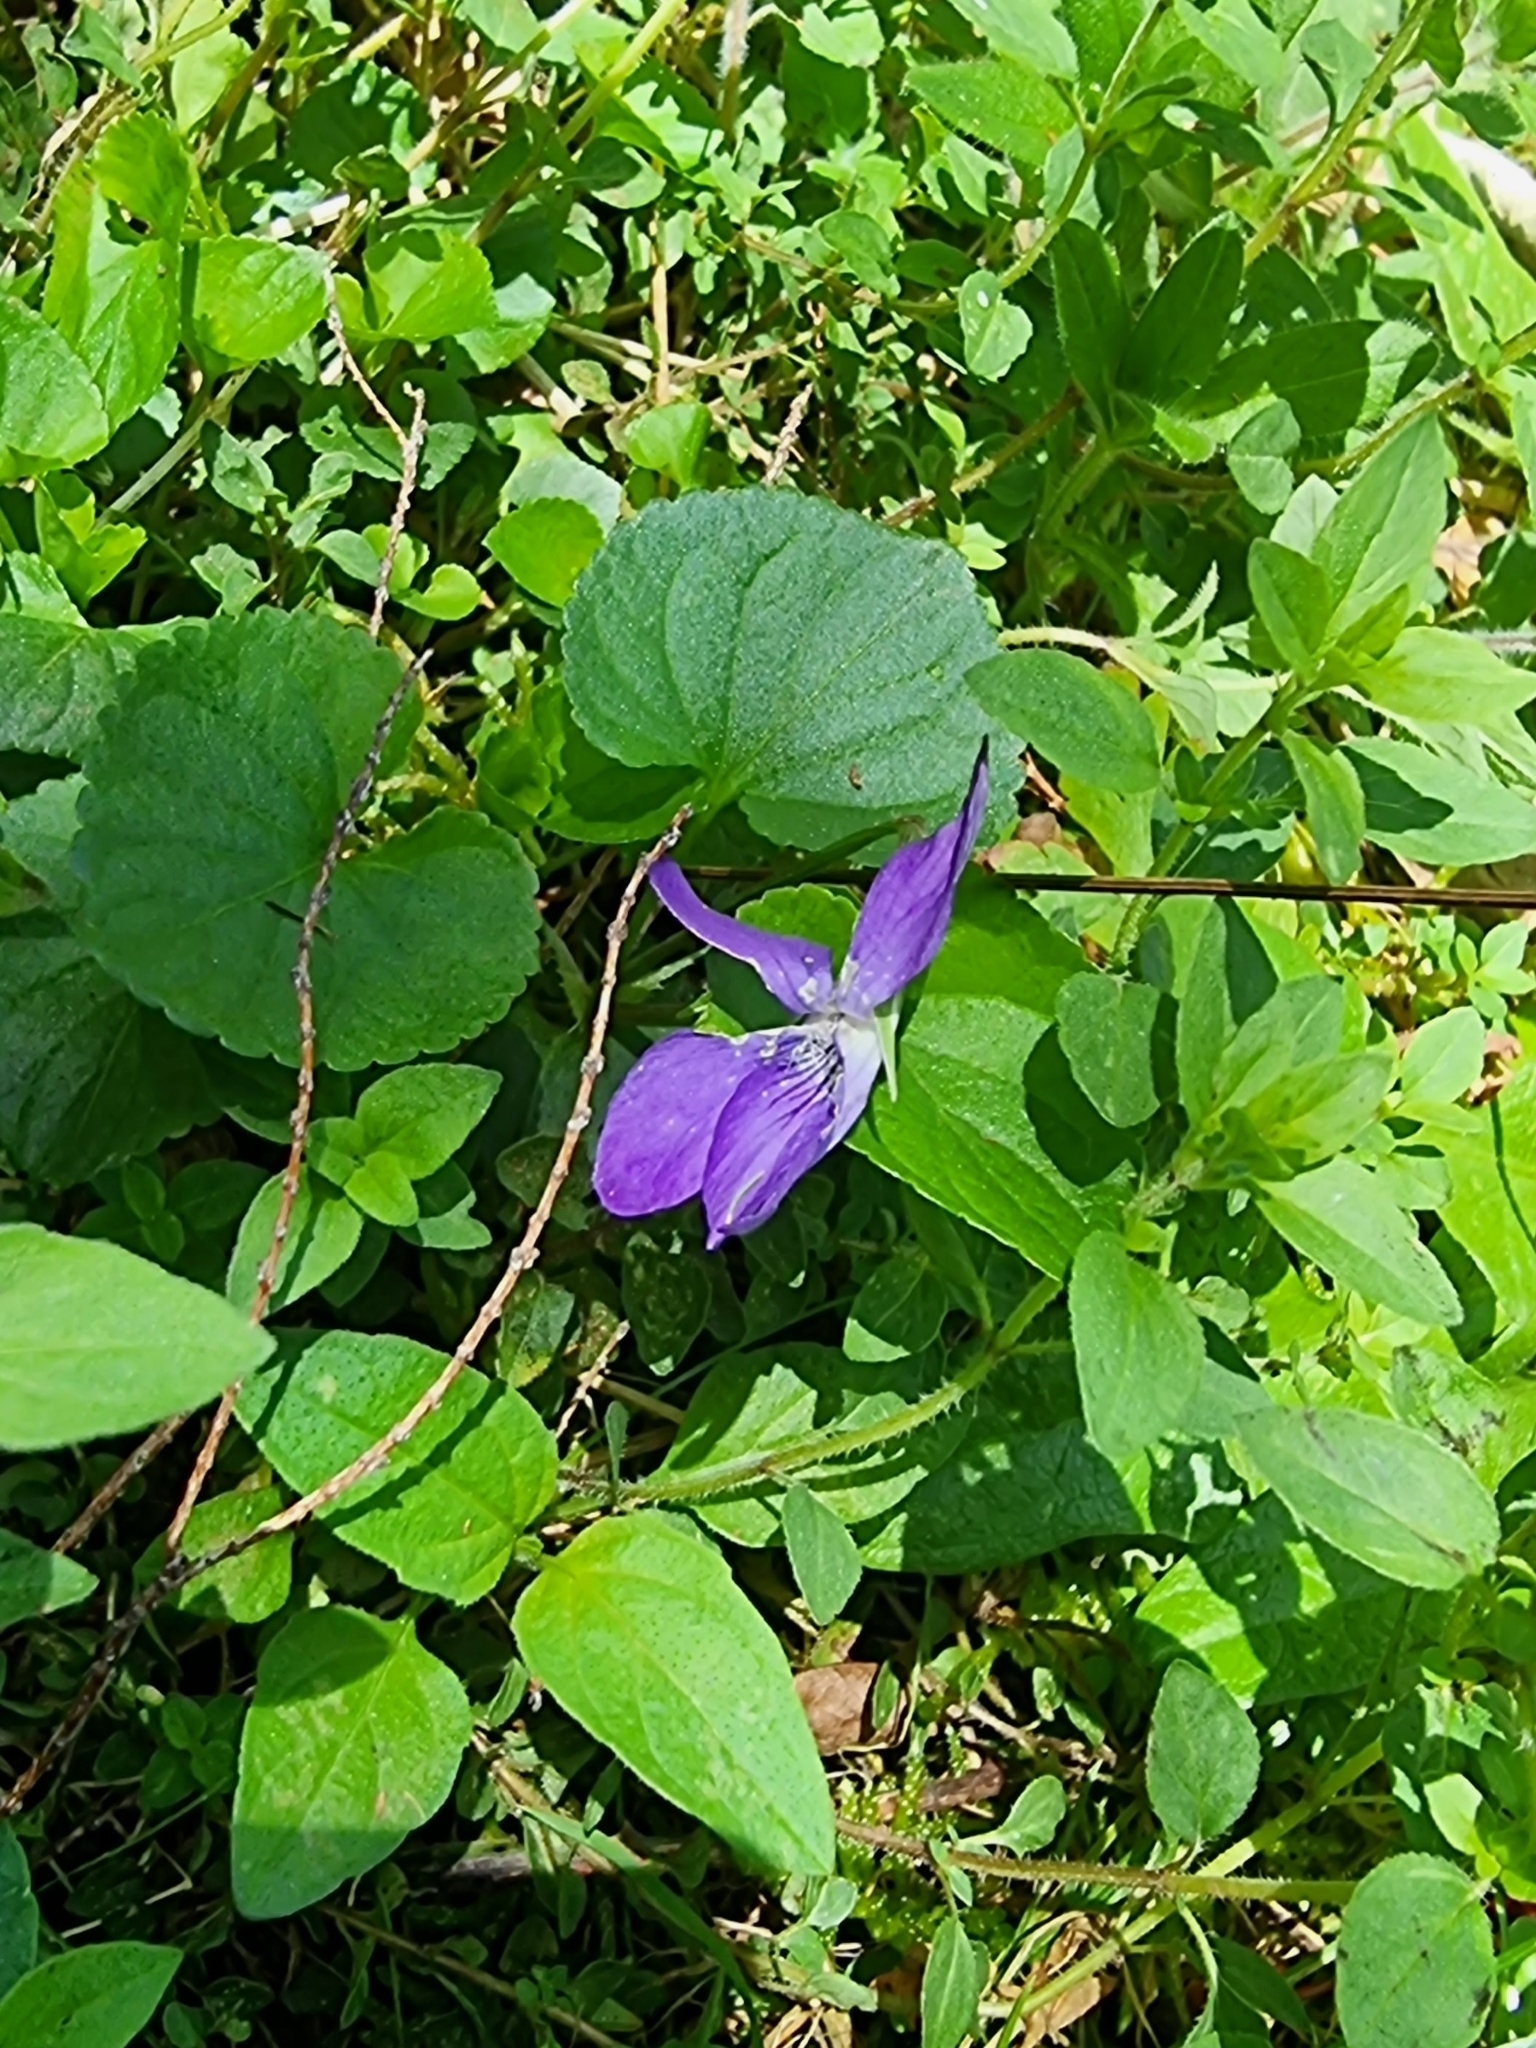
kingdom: Plantae
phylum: Tracheophyta
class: Magnoliopsida
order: Malpighiales
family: Violaceae
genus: Viola
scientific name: Viola riviniana
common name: Common dog-violet
